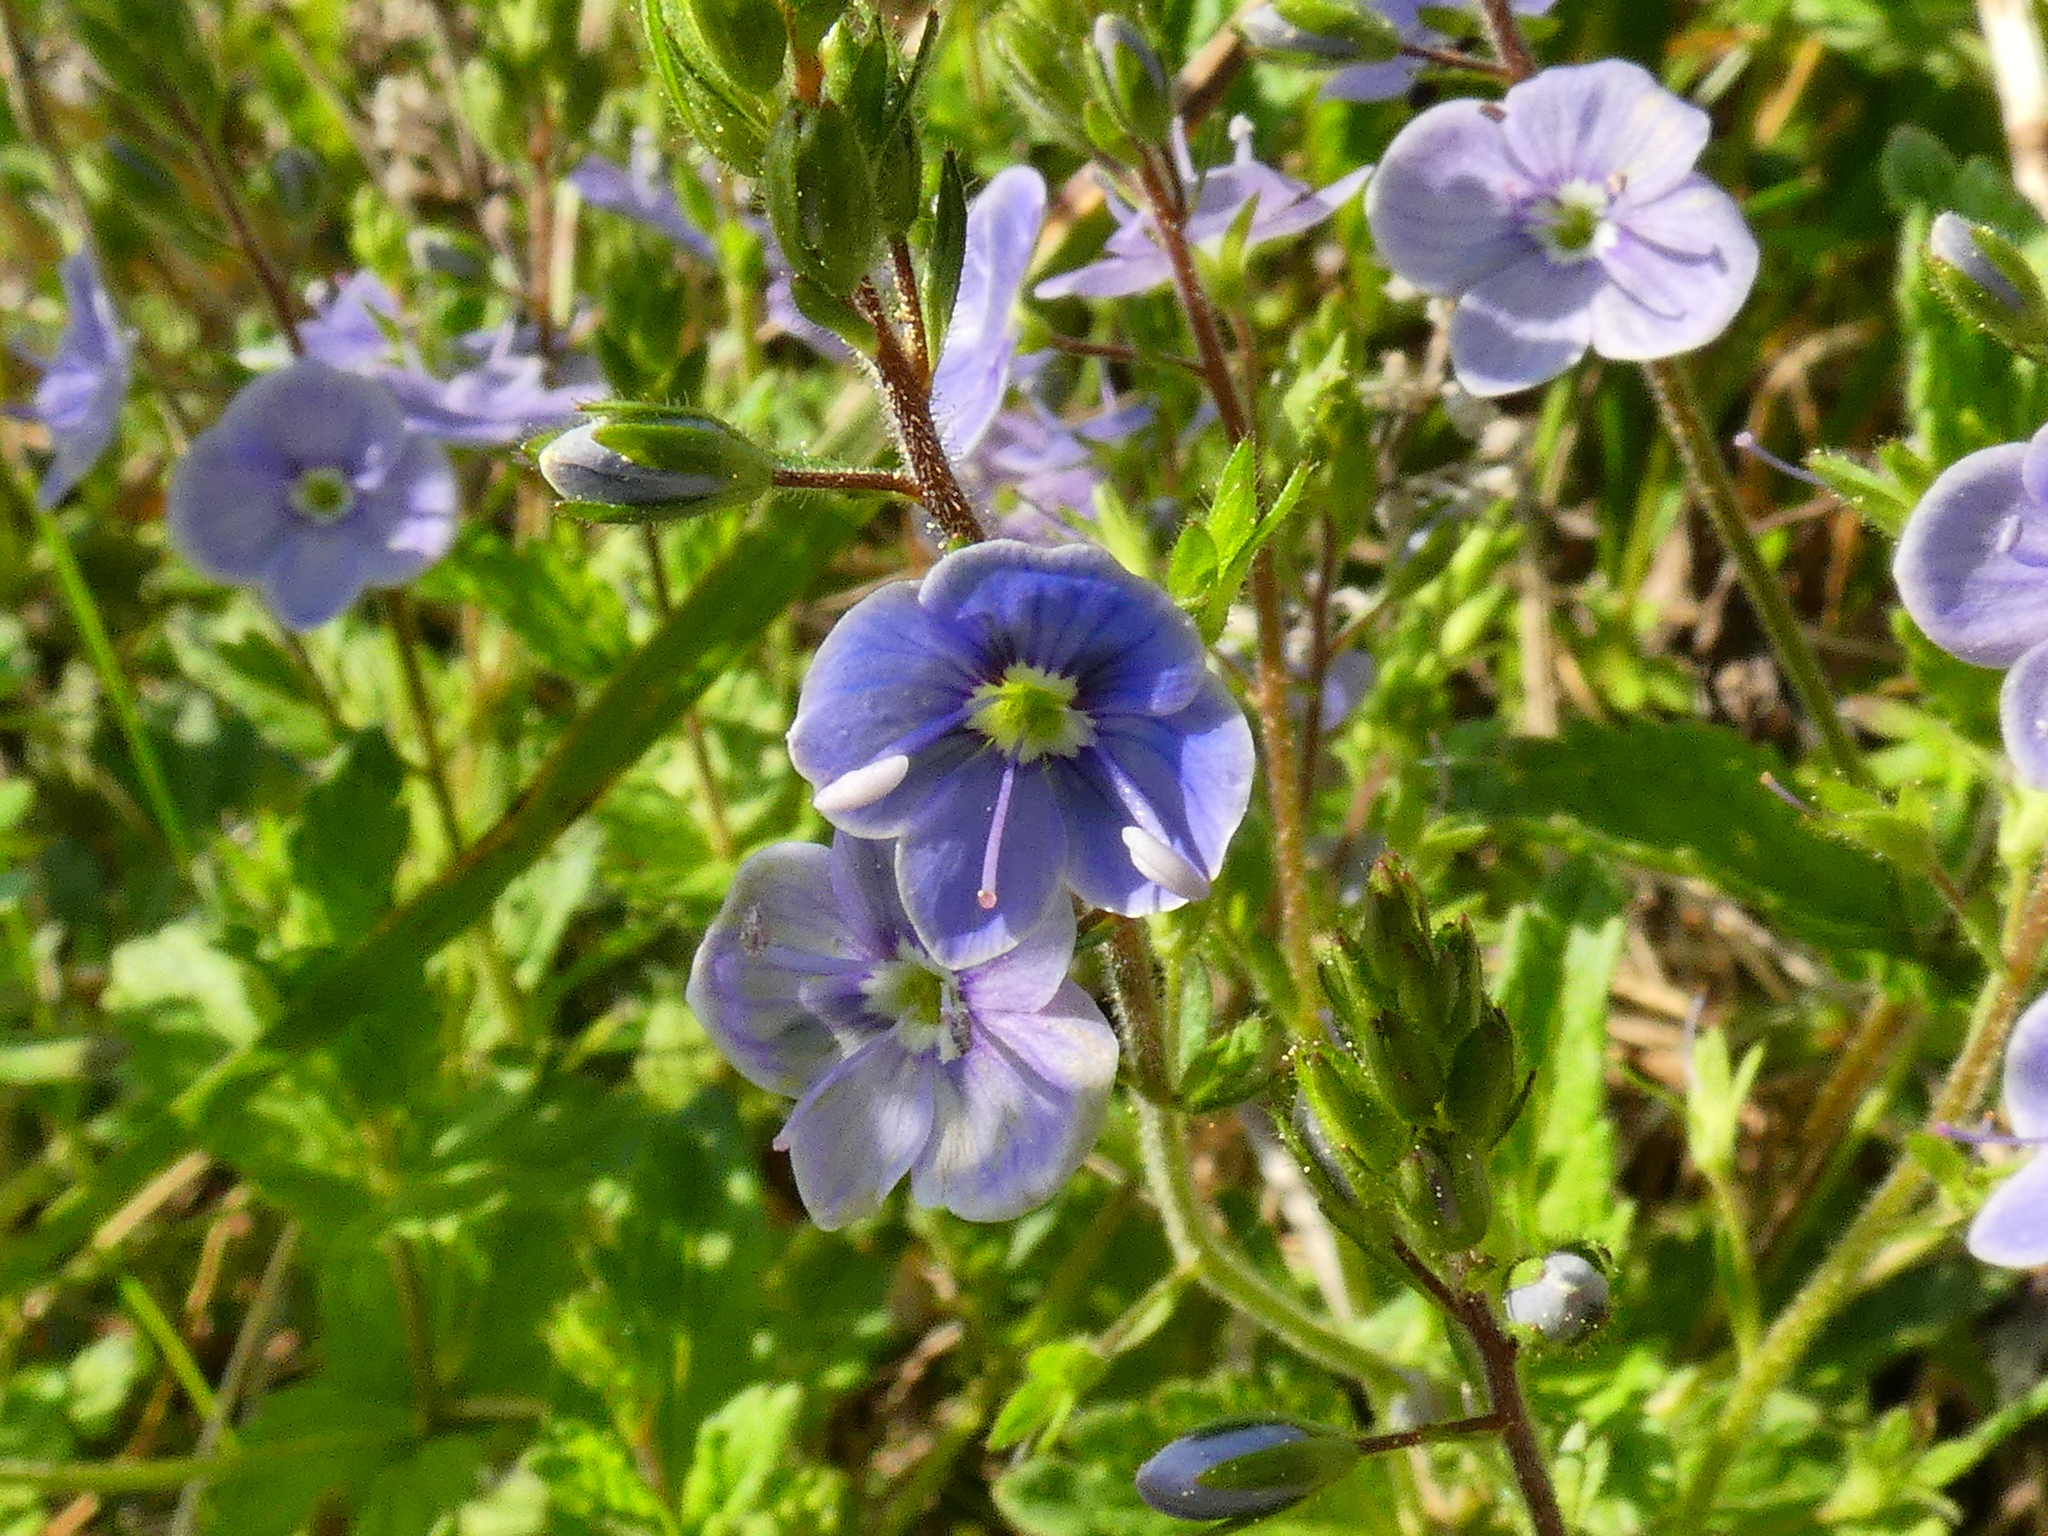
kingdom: Plantae
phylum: Tracheophyta
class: Magnoliopsida
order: Lamiales
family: Plantaginaceae
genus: Veronica
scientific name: Veronica chamaedrys
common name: Germander speedwell
